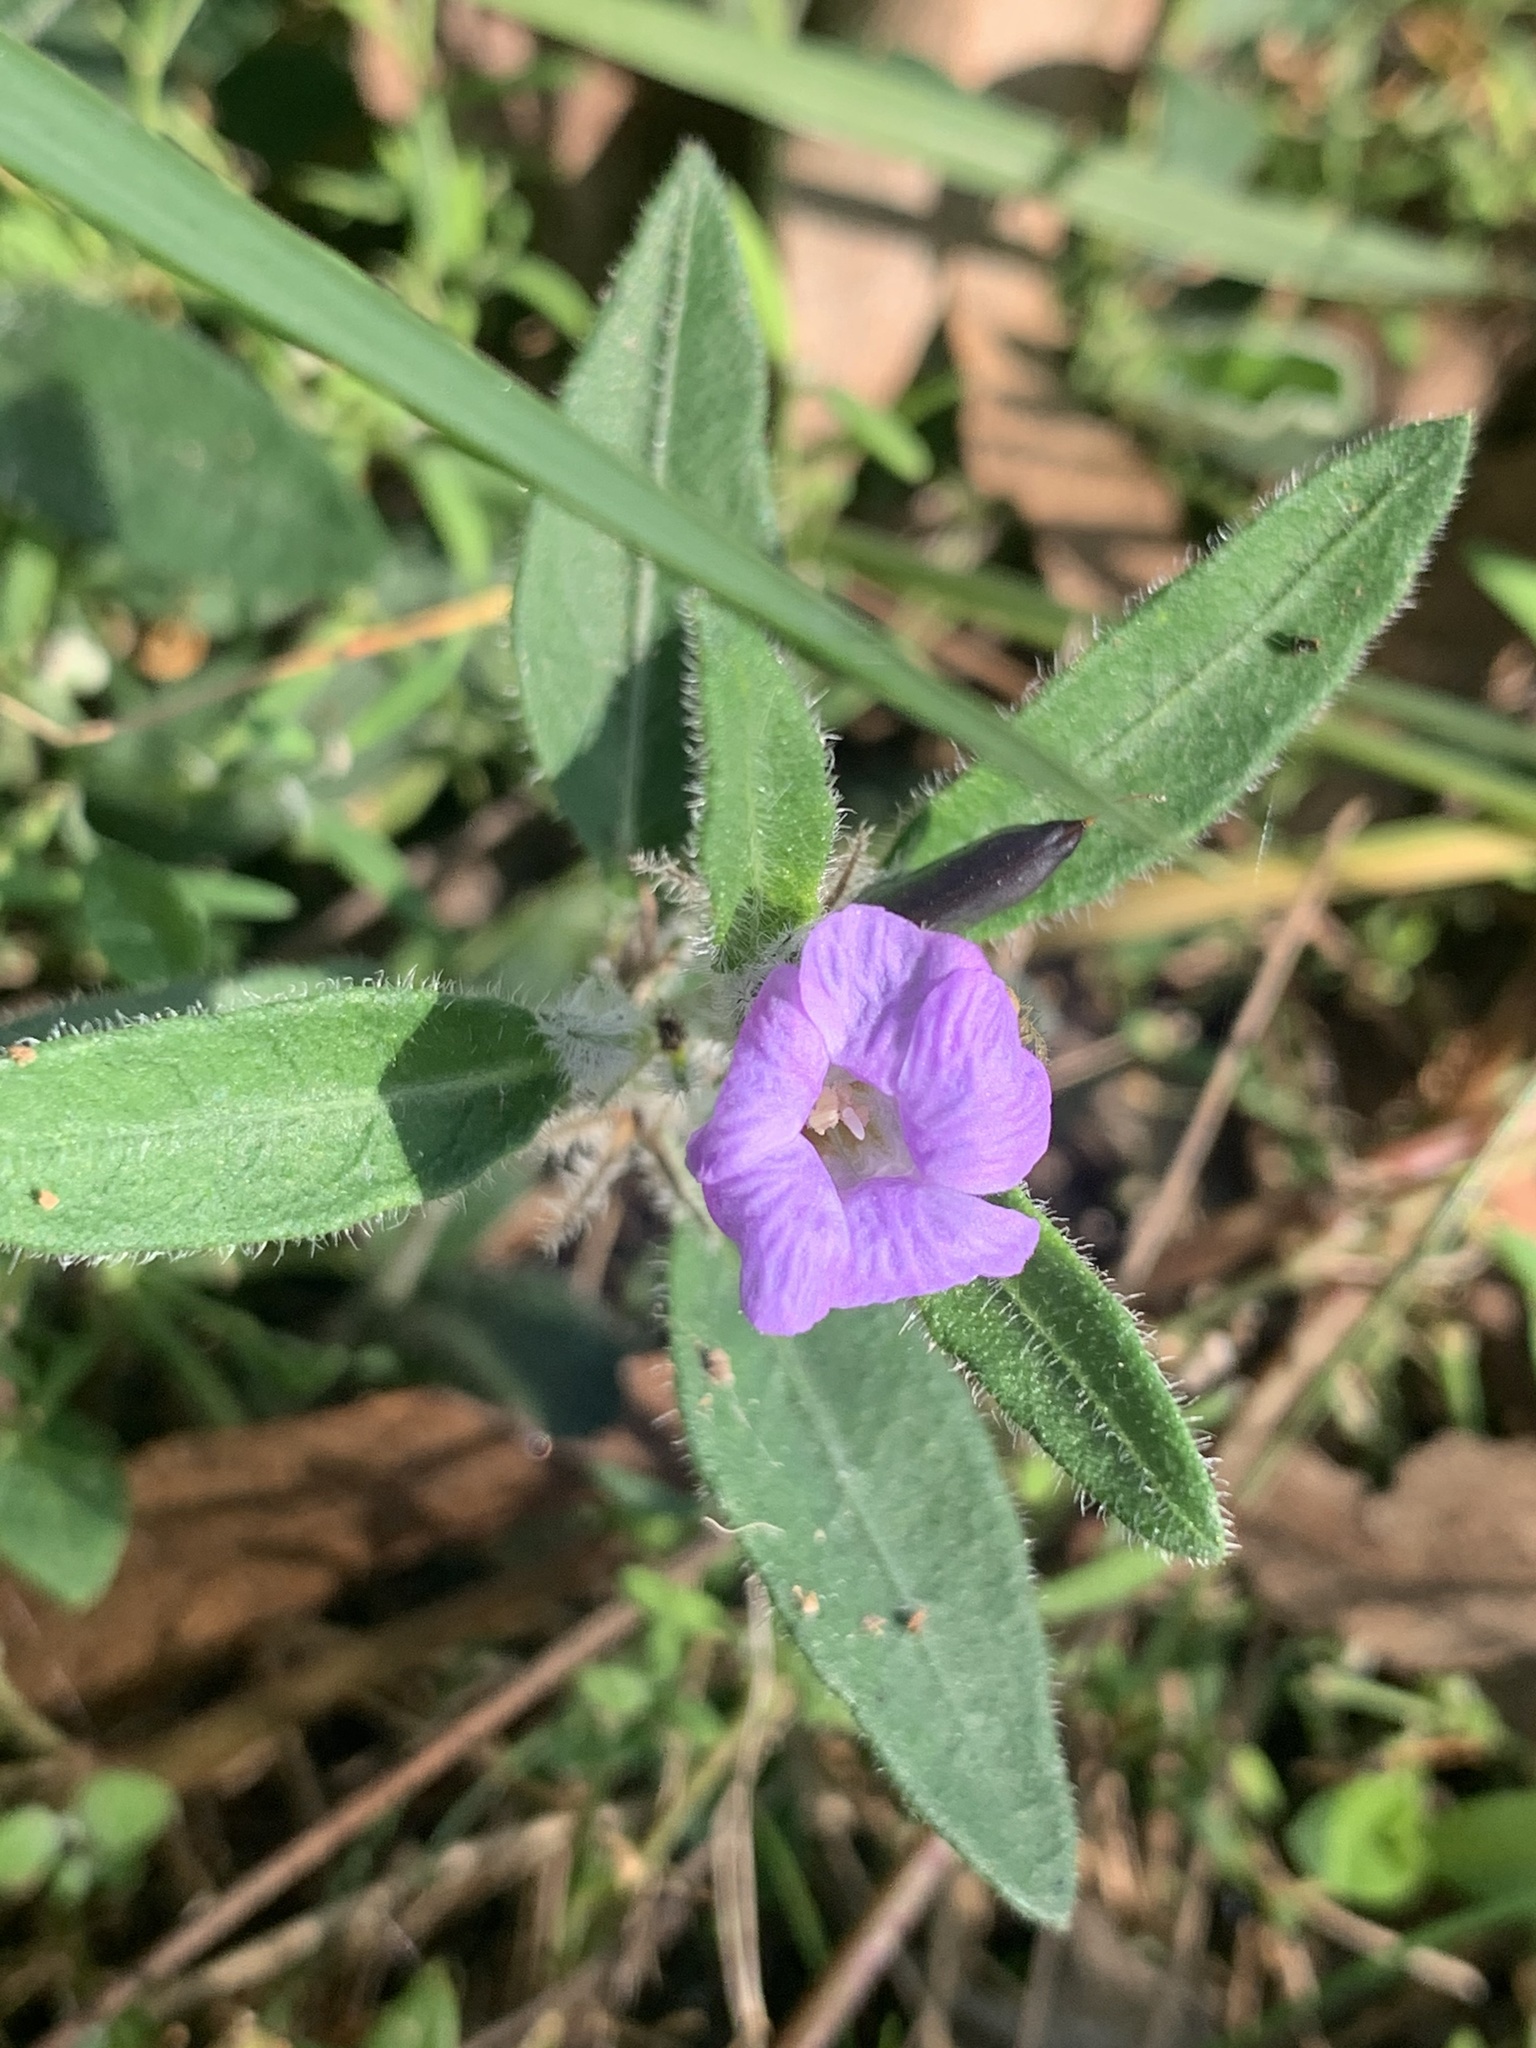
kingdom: Plantae
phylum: Tracheophyta
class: Magnoliopsida
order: Lamiales
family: Acanthaceae
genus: Brunoniella
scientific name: Brunoniella australis
